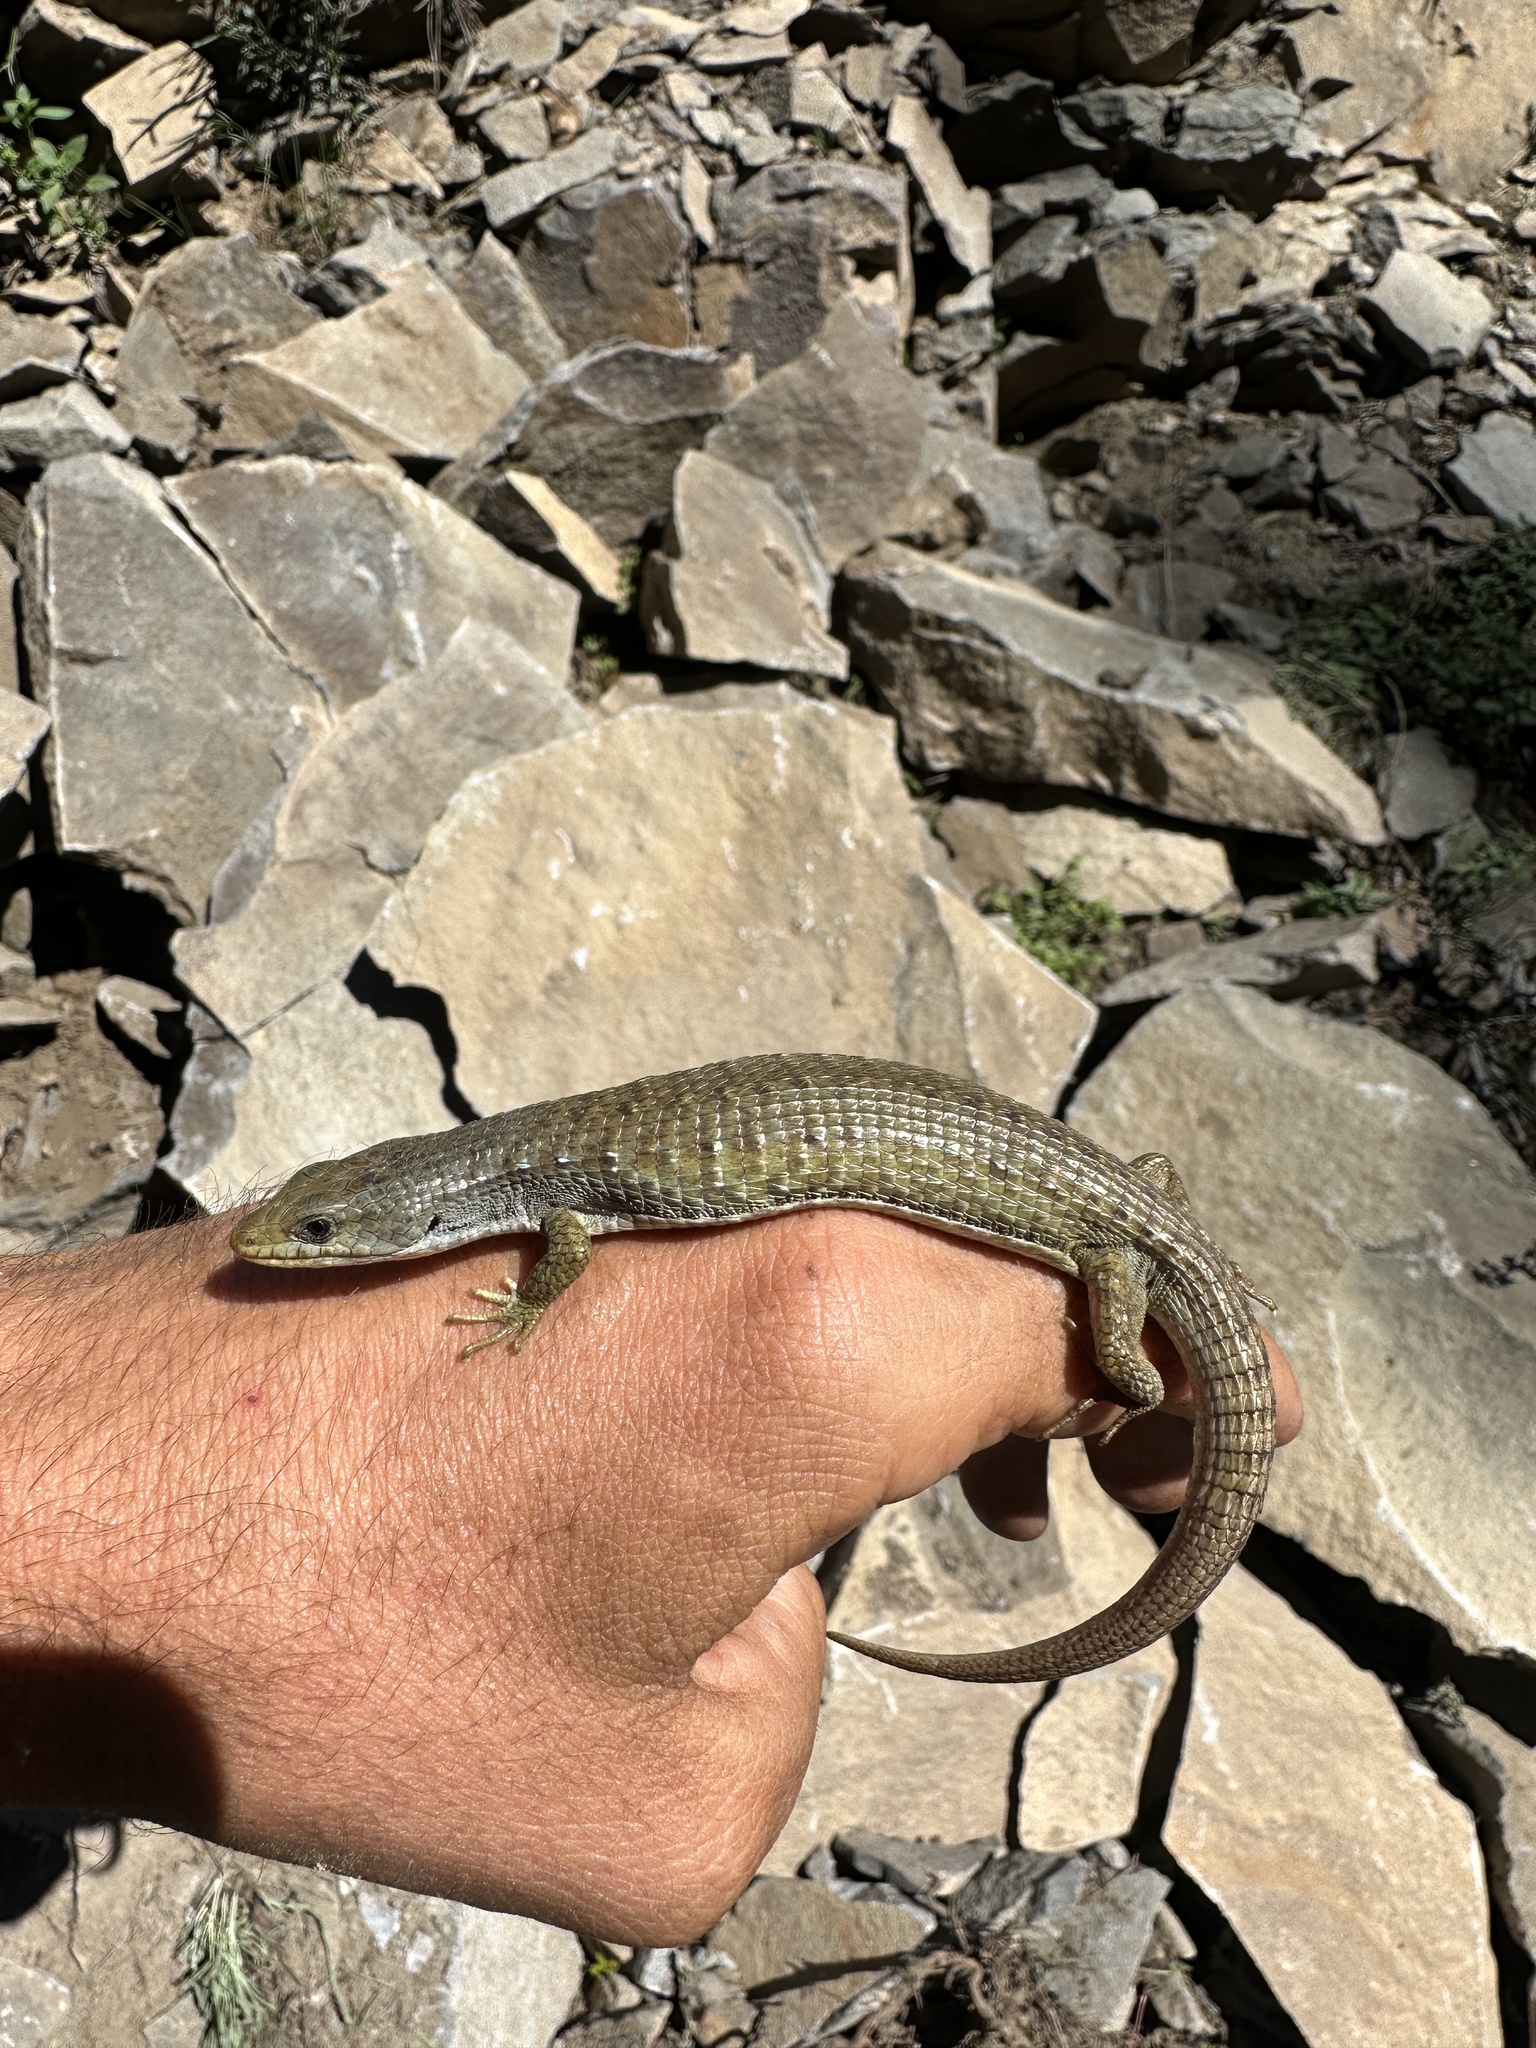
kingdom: Animalia
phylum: Chordata
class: Squamata
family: Anguidae
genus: Elgaria
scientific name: Elgaria coerulea
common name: Northern alligator lizard
